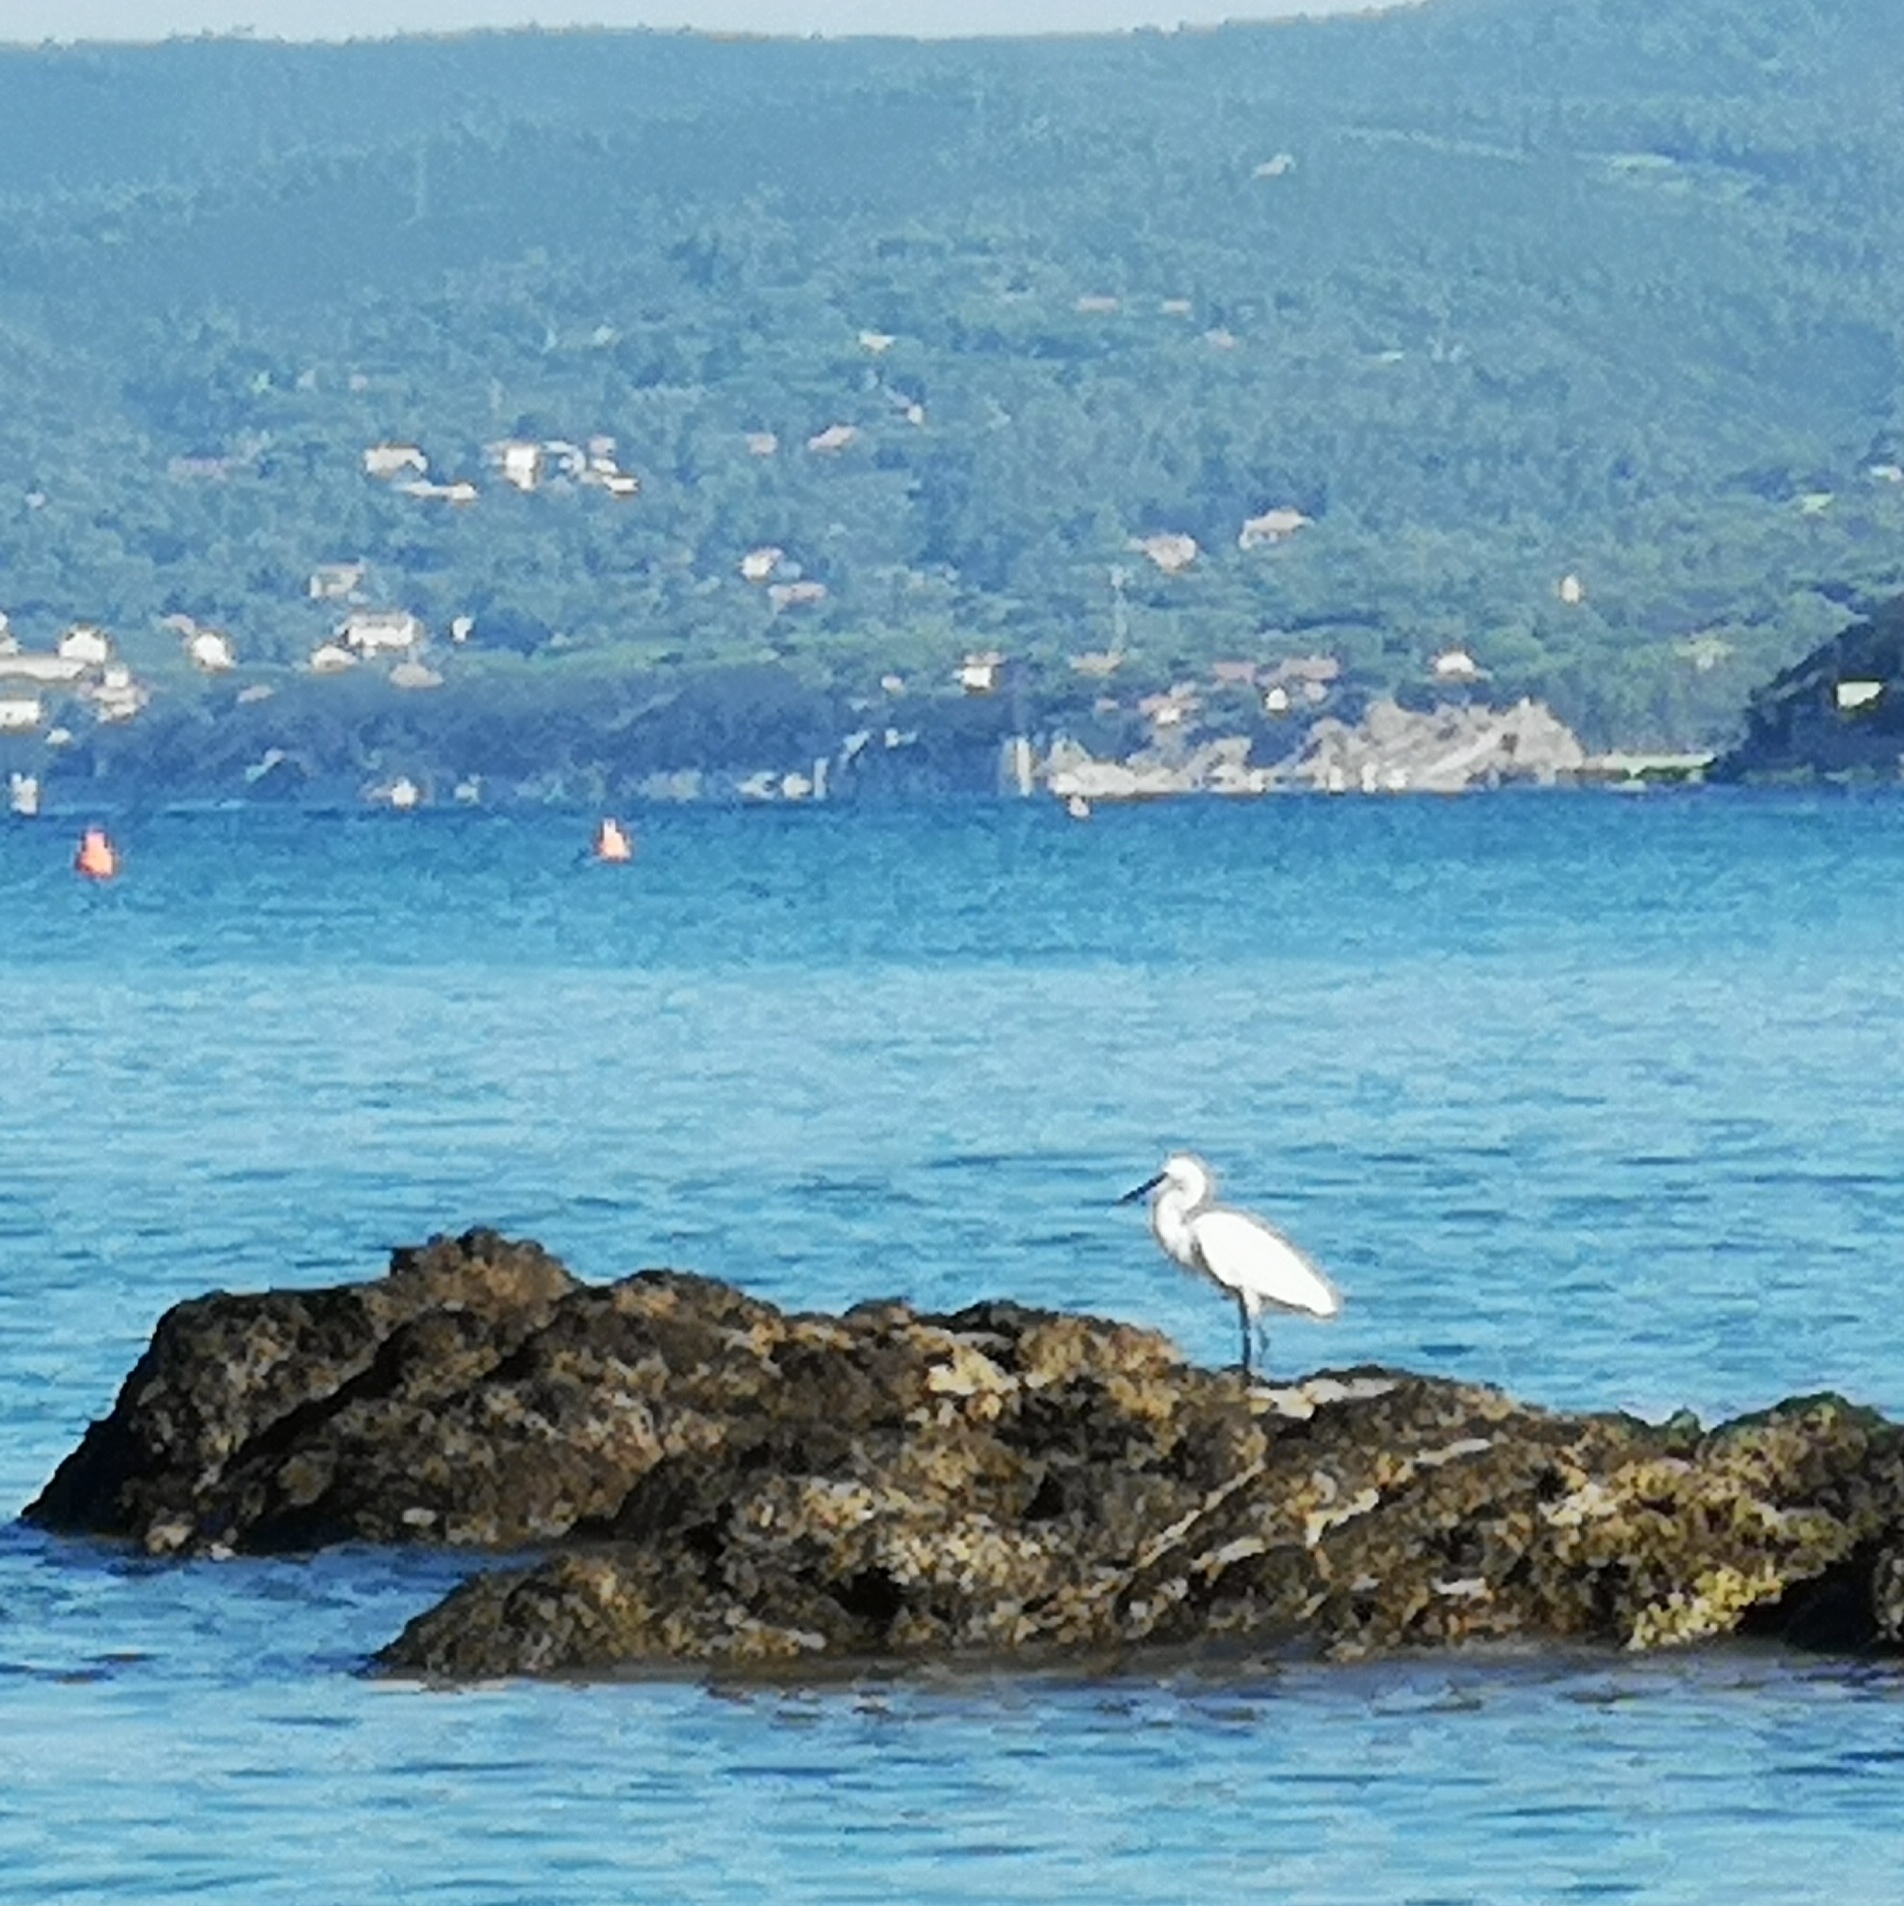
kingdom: Animalia
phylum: Chordata
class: Aves
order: Pelecaniformes
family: Ardeidae
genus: Egretta
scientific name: Egretta garzetta
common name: Little egret
